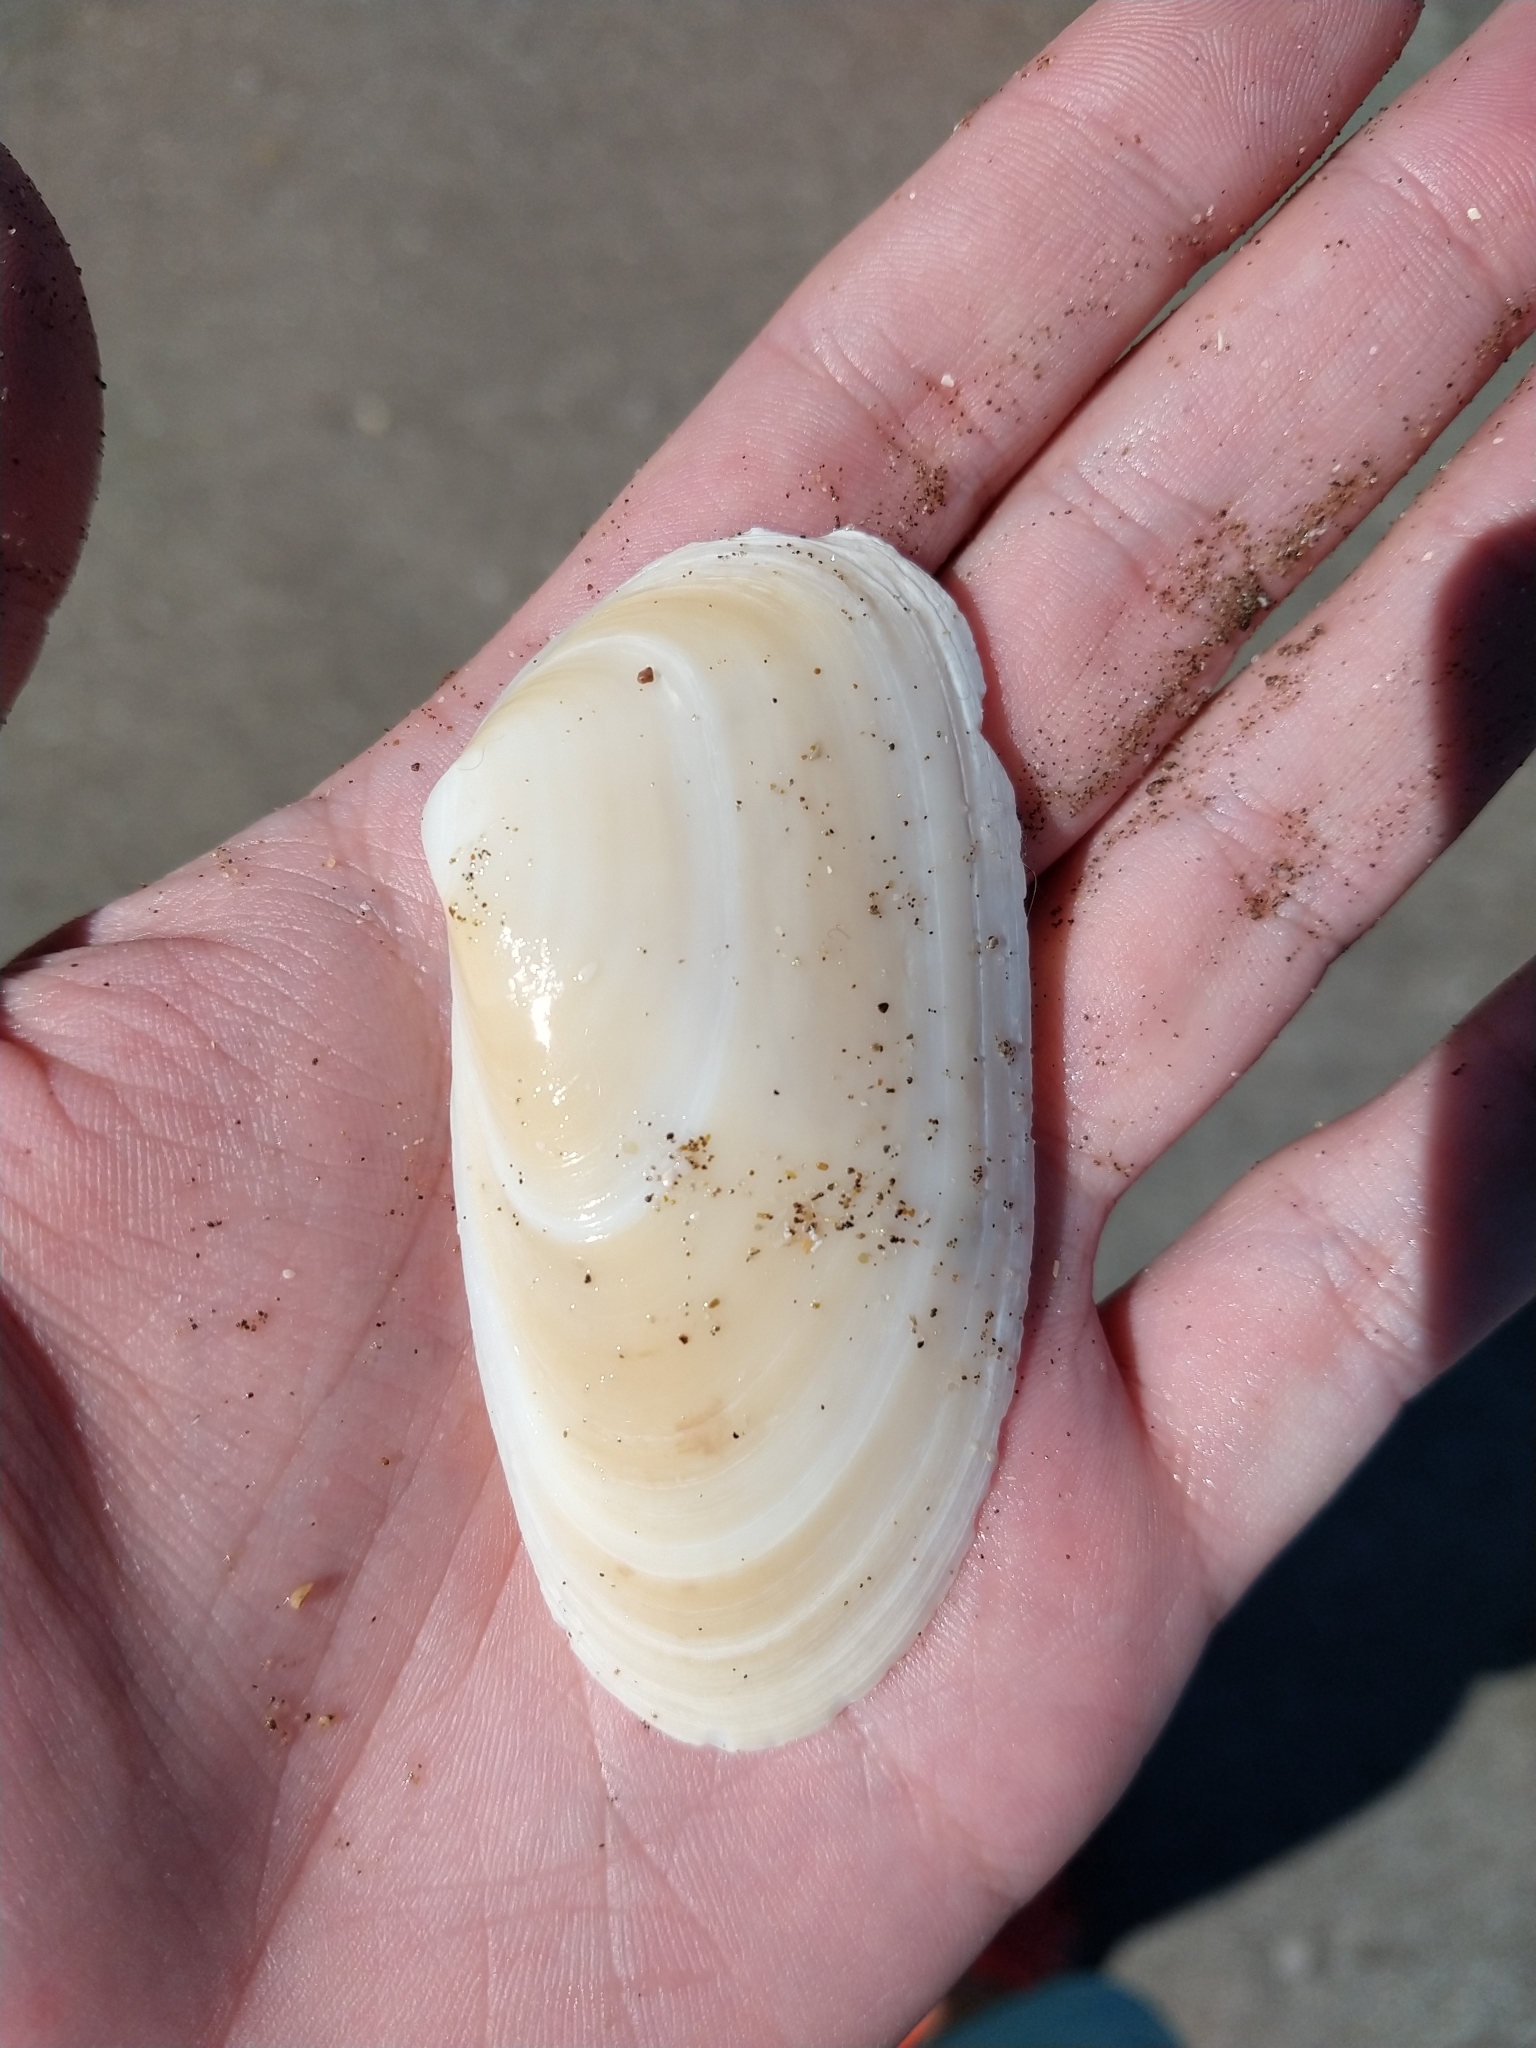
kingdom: Animalia
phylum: Mollusca
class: Bivalvia
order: Venerida
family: Mesodesmatidae
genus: Amarilladesma
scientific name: Amarilladesma mactroides
